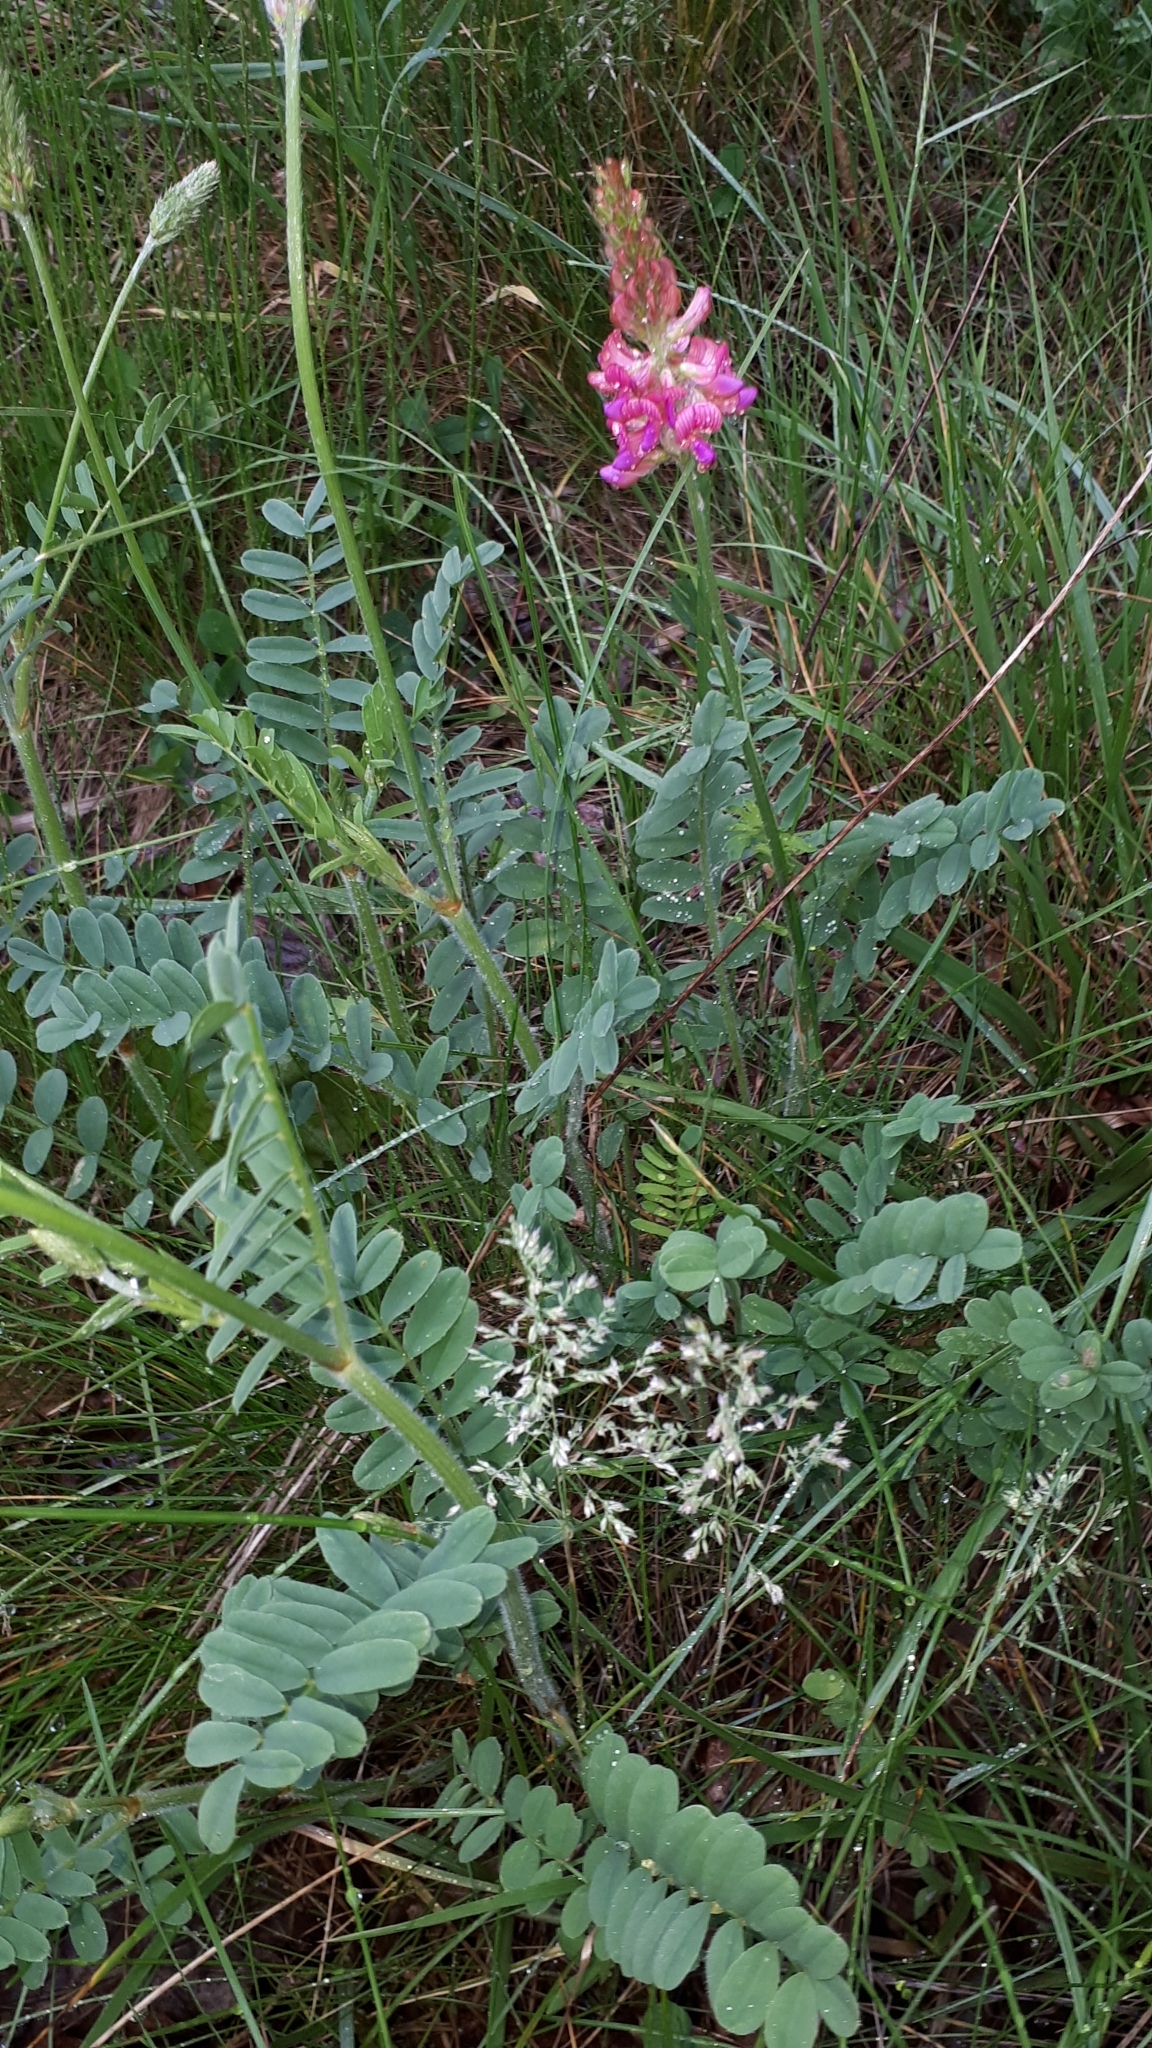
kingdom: Plantae
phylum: Tracheophyta
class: Magnoliopsida
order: Fabales
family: Fabaceae
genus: Onobrychis
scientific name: Onobrychis viciifolia
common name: Sainfoin
